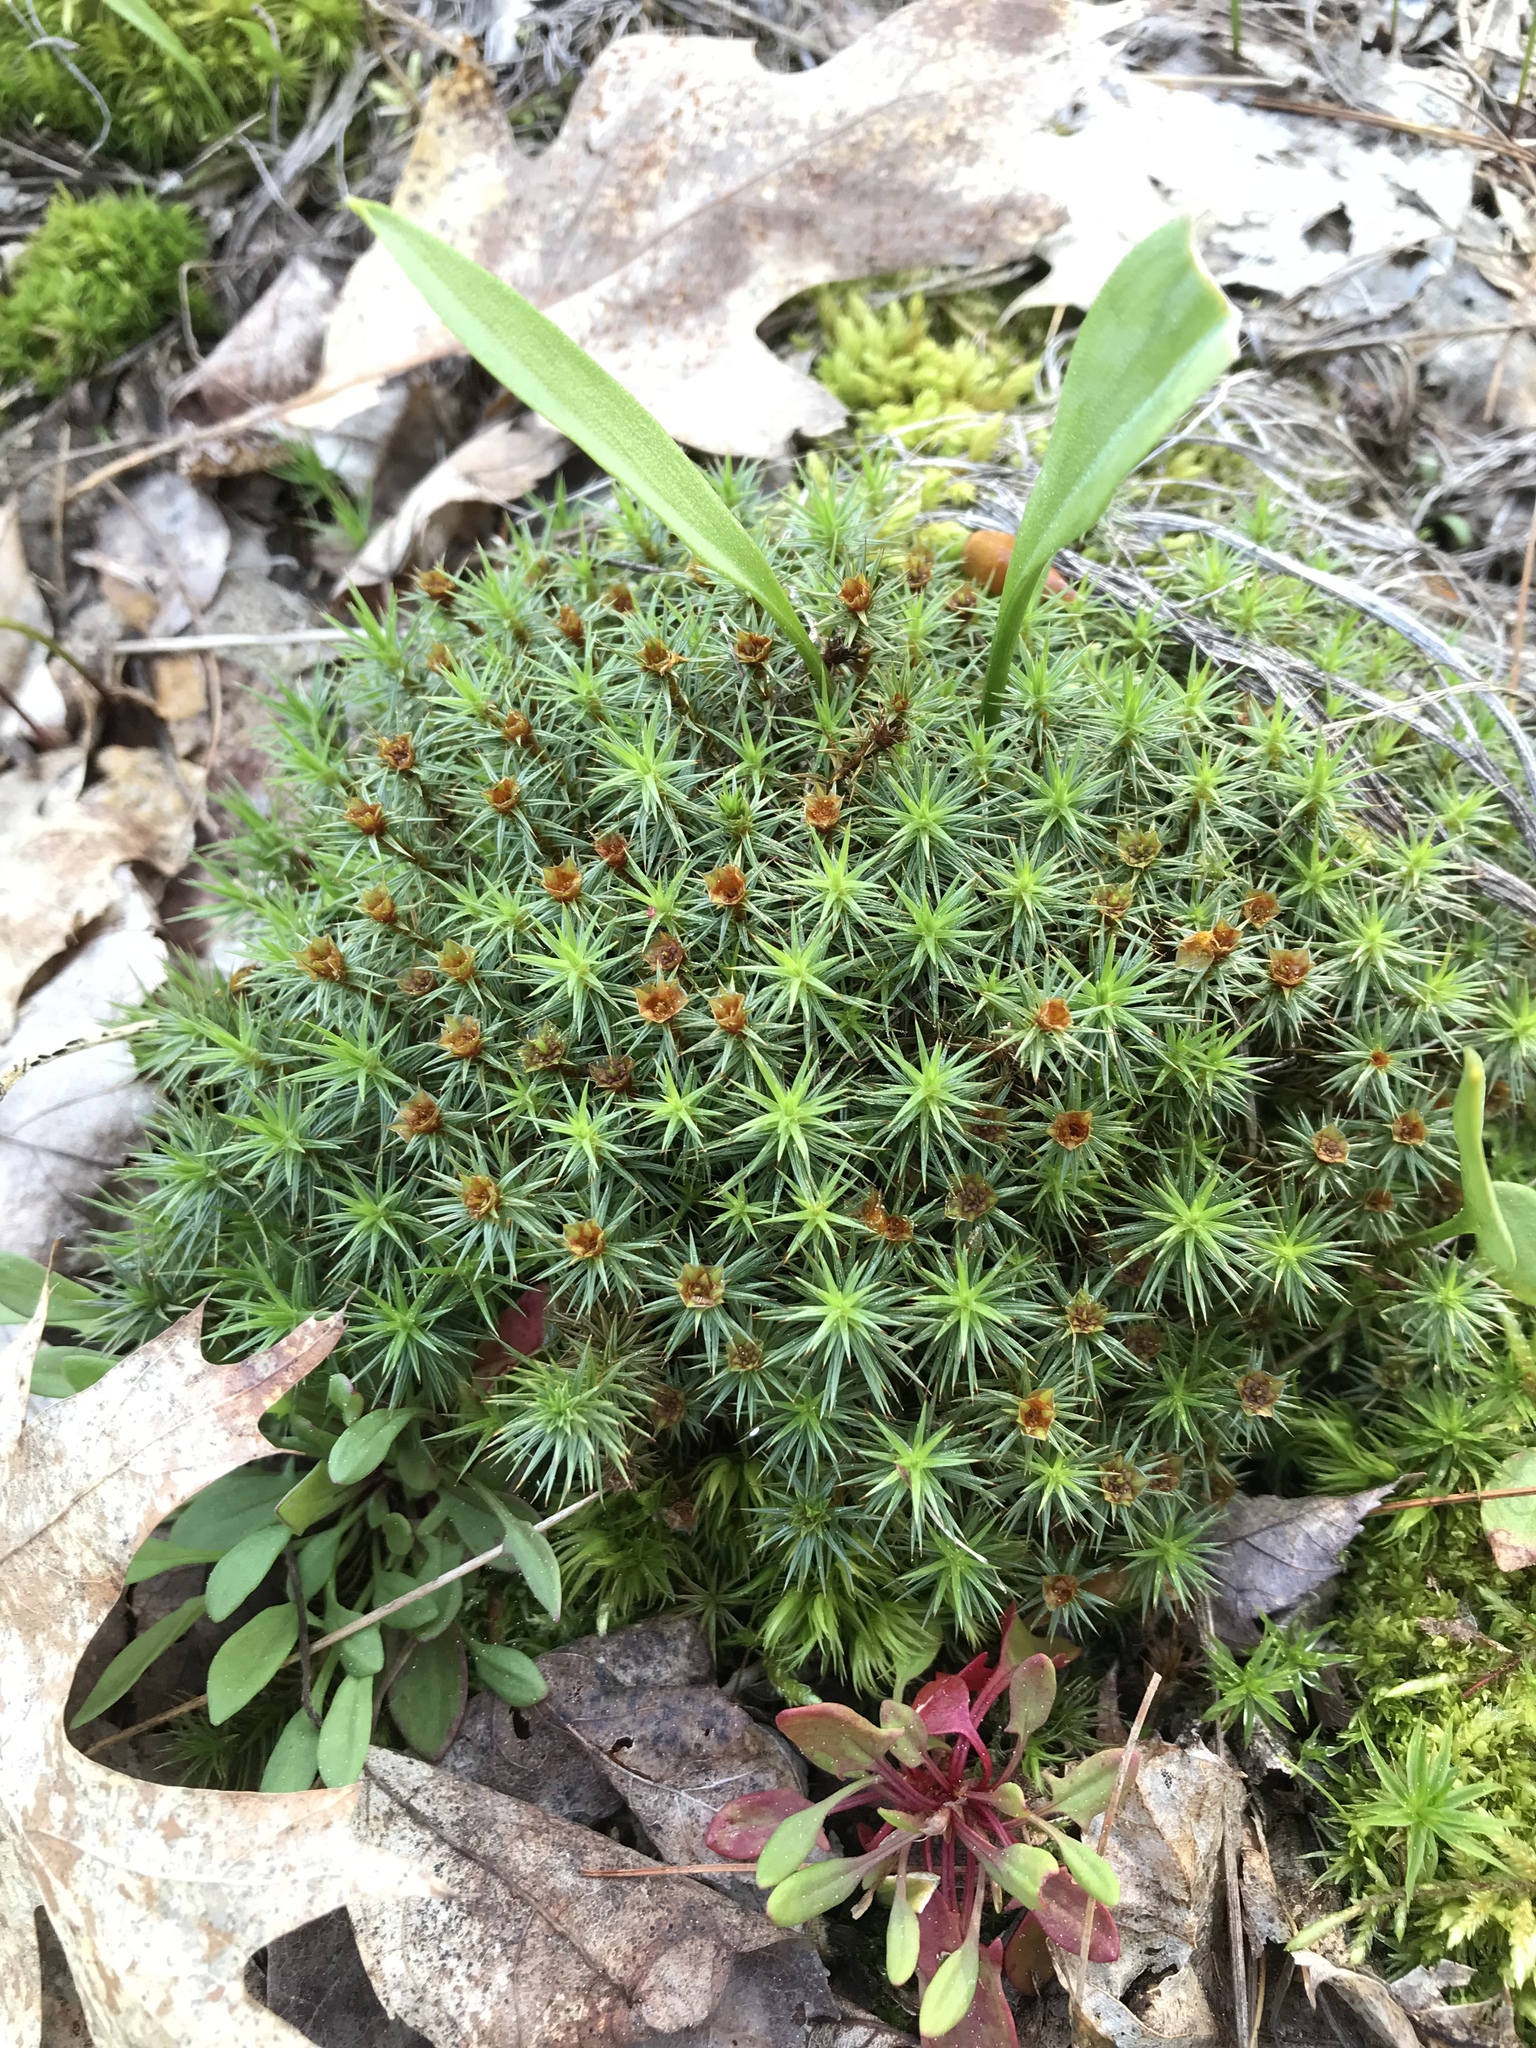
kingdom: Plantae
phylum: Bryophyta
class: Polytrichopsida
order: Polytrichales
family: Polytrichaceae
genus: Polytrichum
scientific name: Polytrichum juniperinum
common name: Juniper haircap moss
